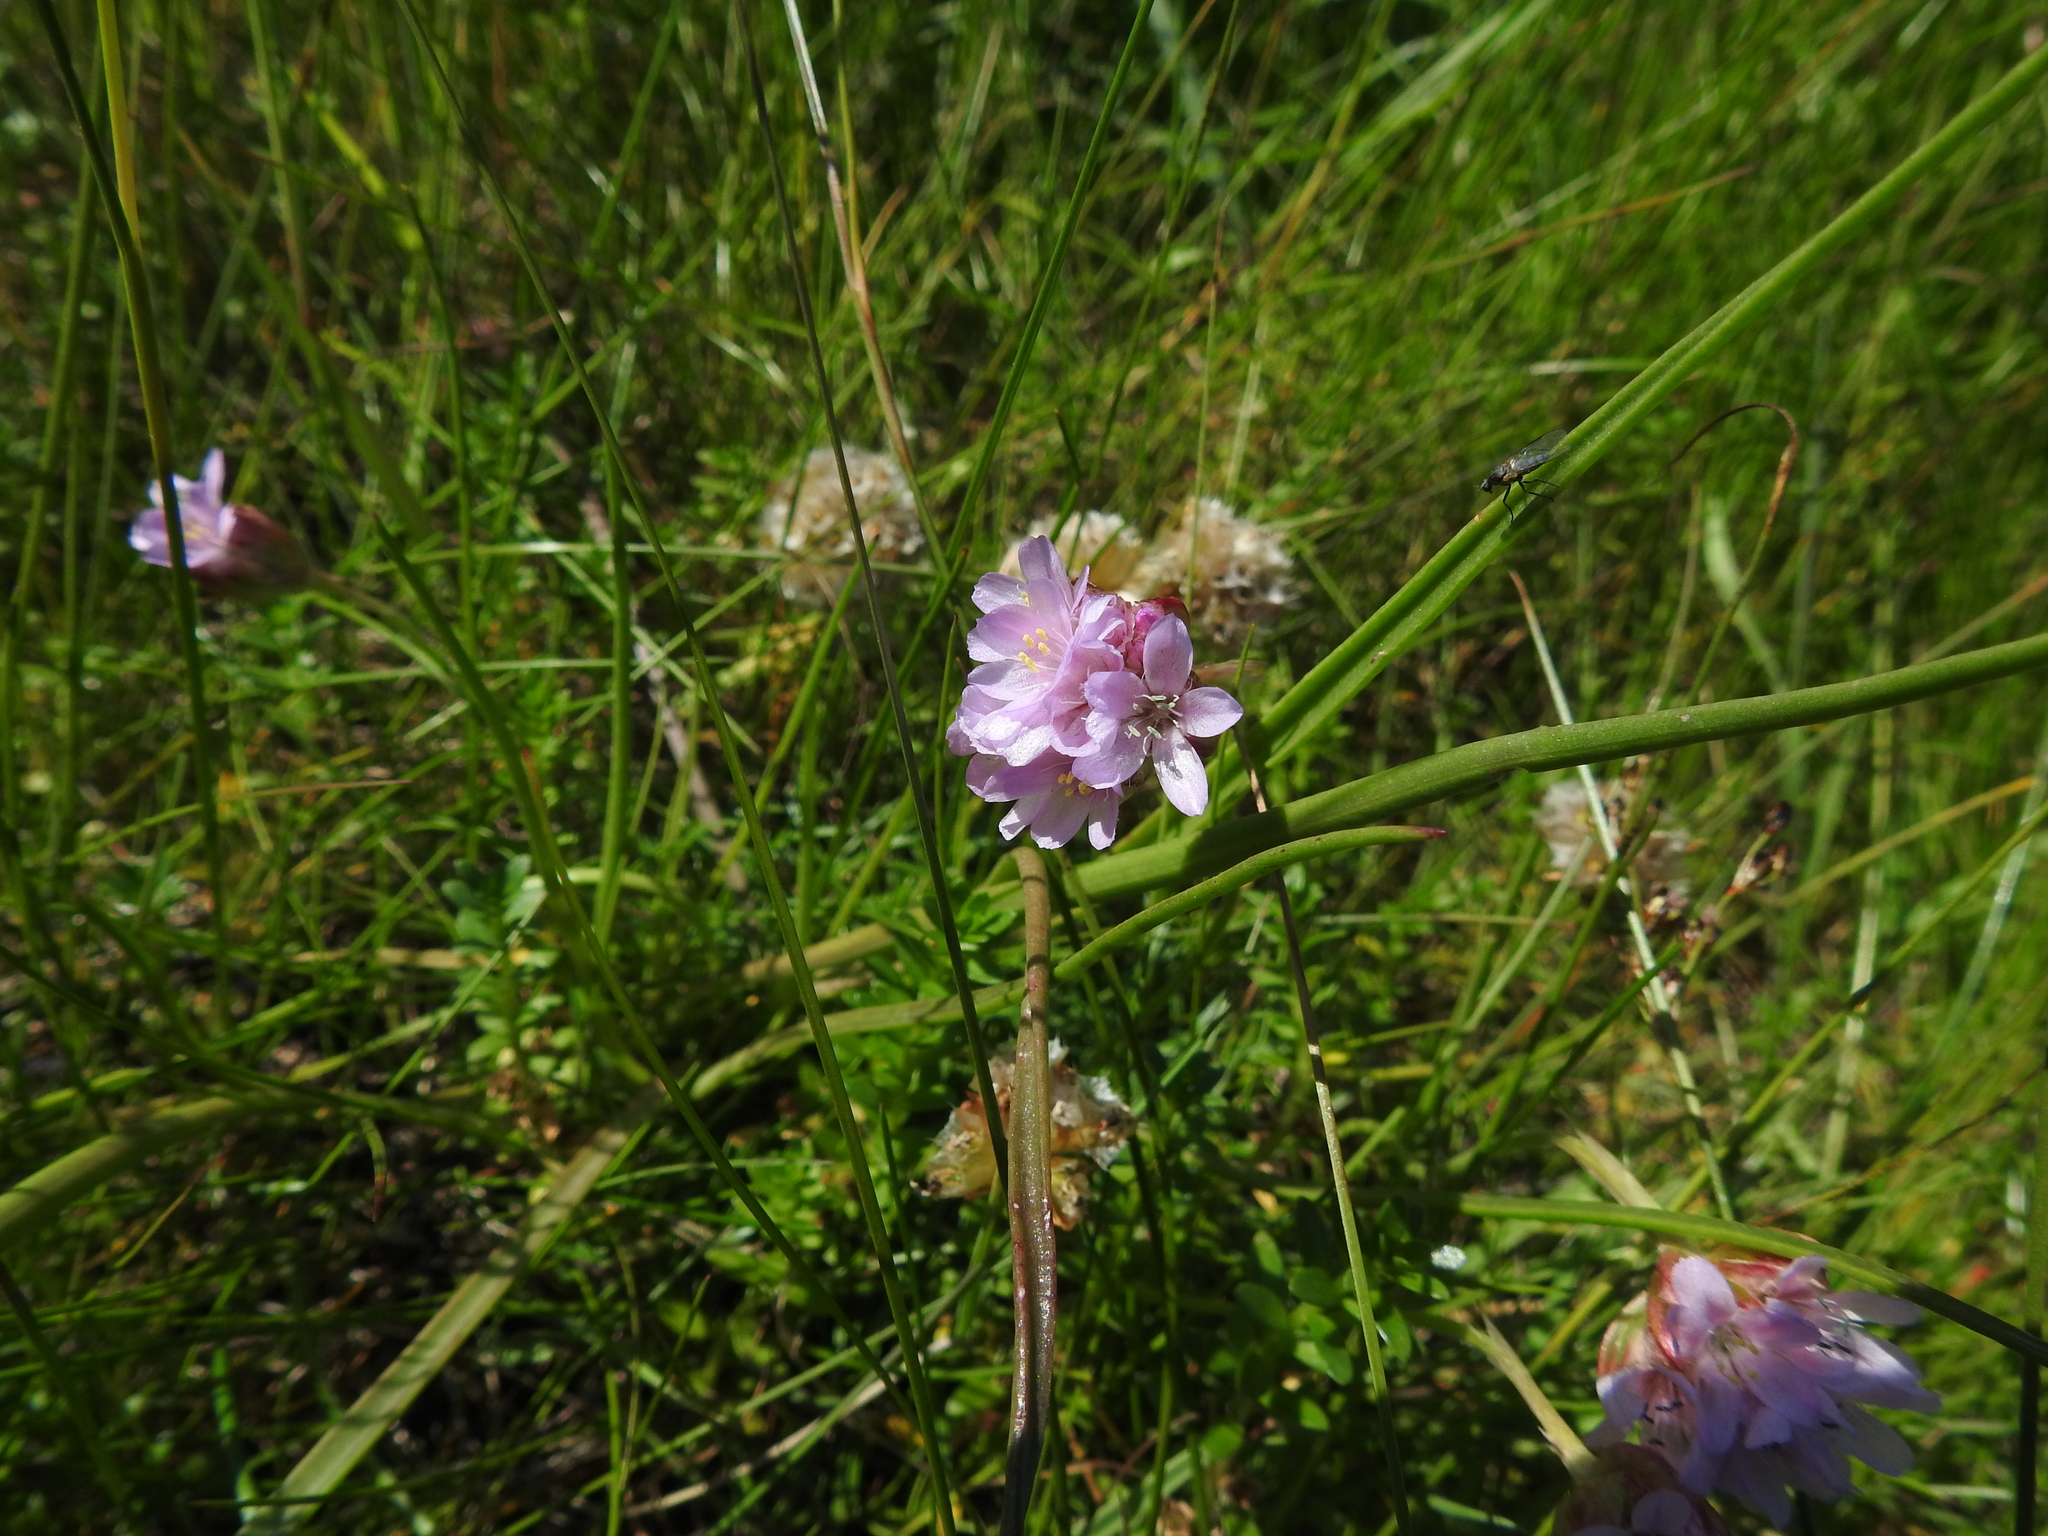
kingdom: Plantae
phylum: Tracheophyta
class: Magnoliopsida
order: Caryophyllales
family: Plumbaginaceae
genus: Armeria
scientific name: Armeria maritima
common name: Thrift
